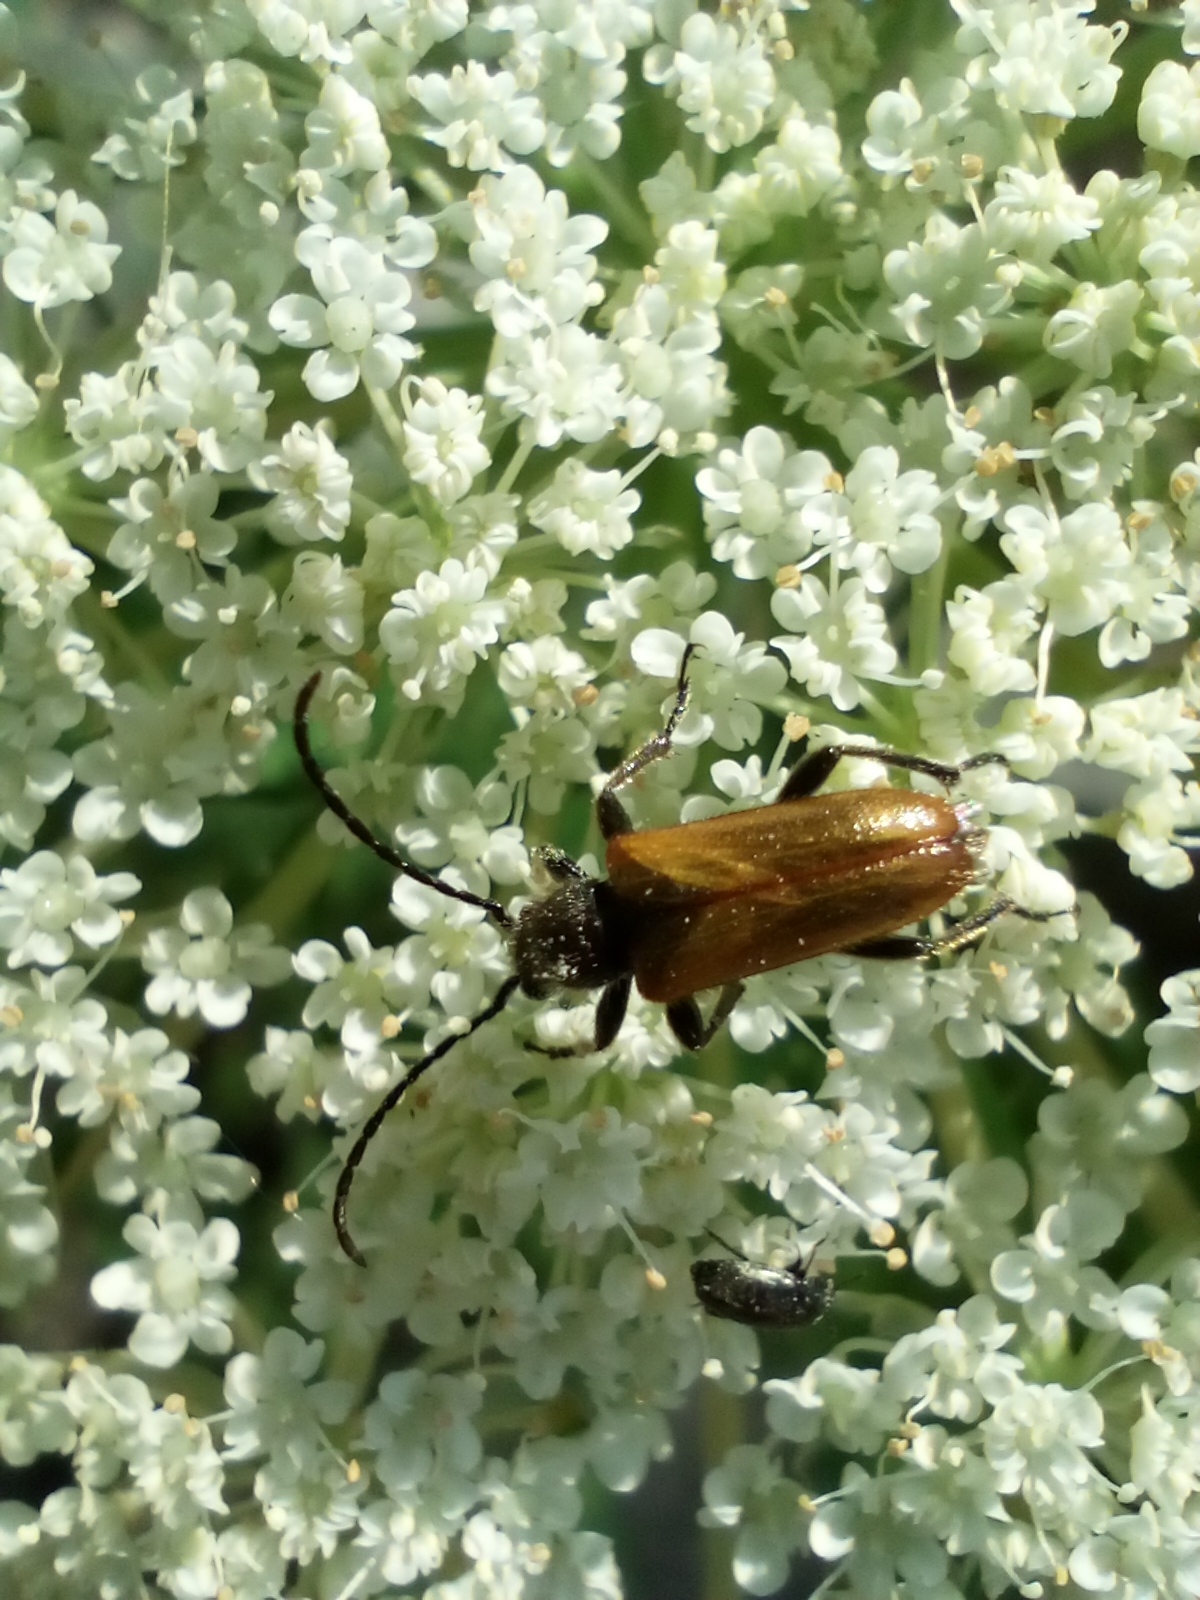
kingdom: Animalia
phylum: Arthropoda
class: Insecta
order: Coleoptera
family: Cerambycidae
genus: Pseudovadonia
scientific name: Pseudovadonia livida
